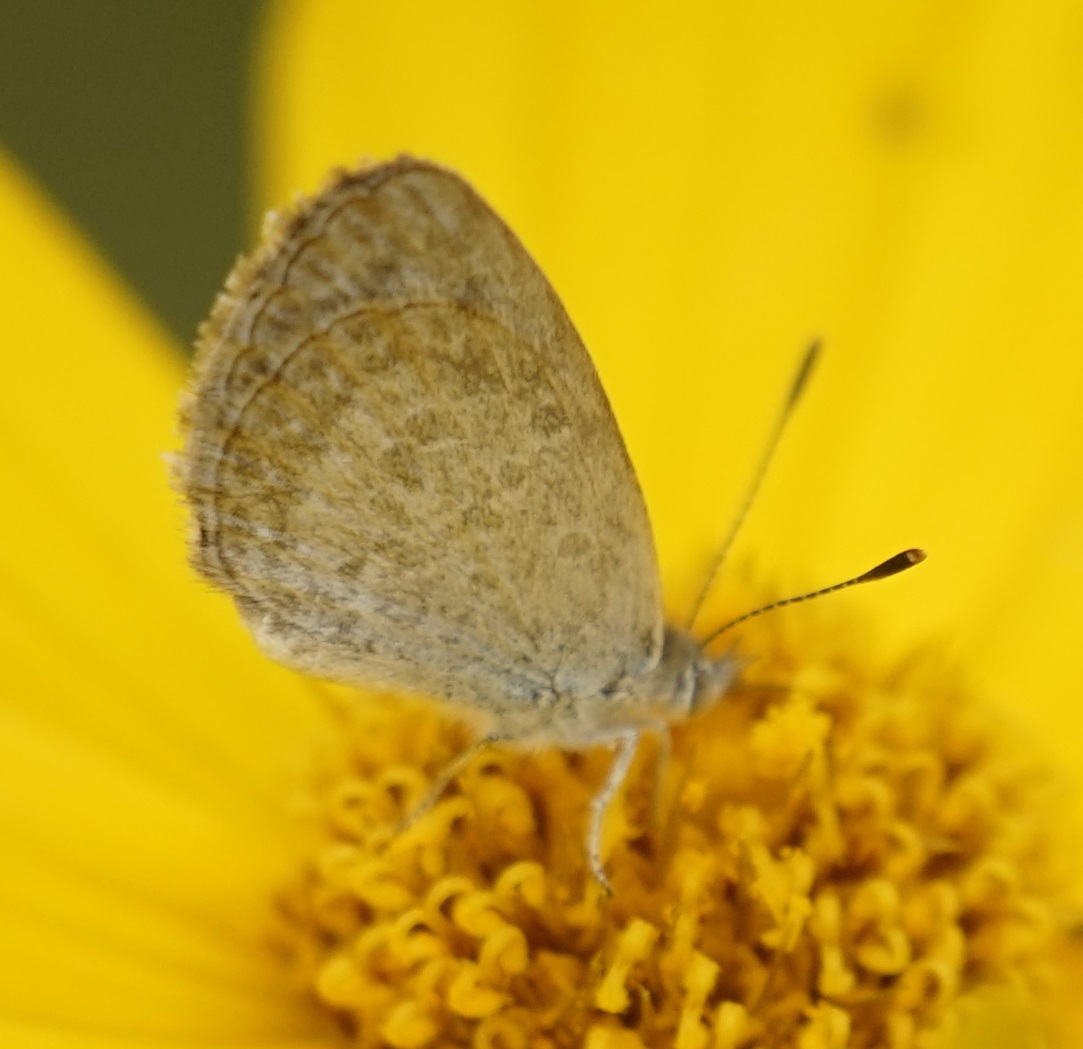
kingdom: Animalia
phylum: Arthropoda
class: Insecta
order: Lepidoptera
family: Lycaenidae
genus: Zizina
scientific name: Zizina labradus
